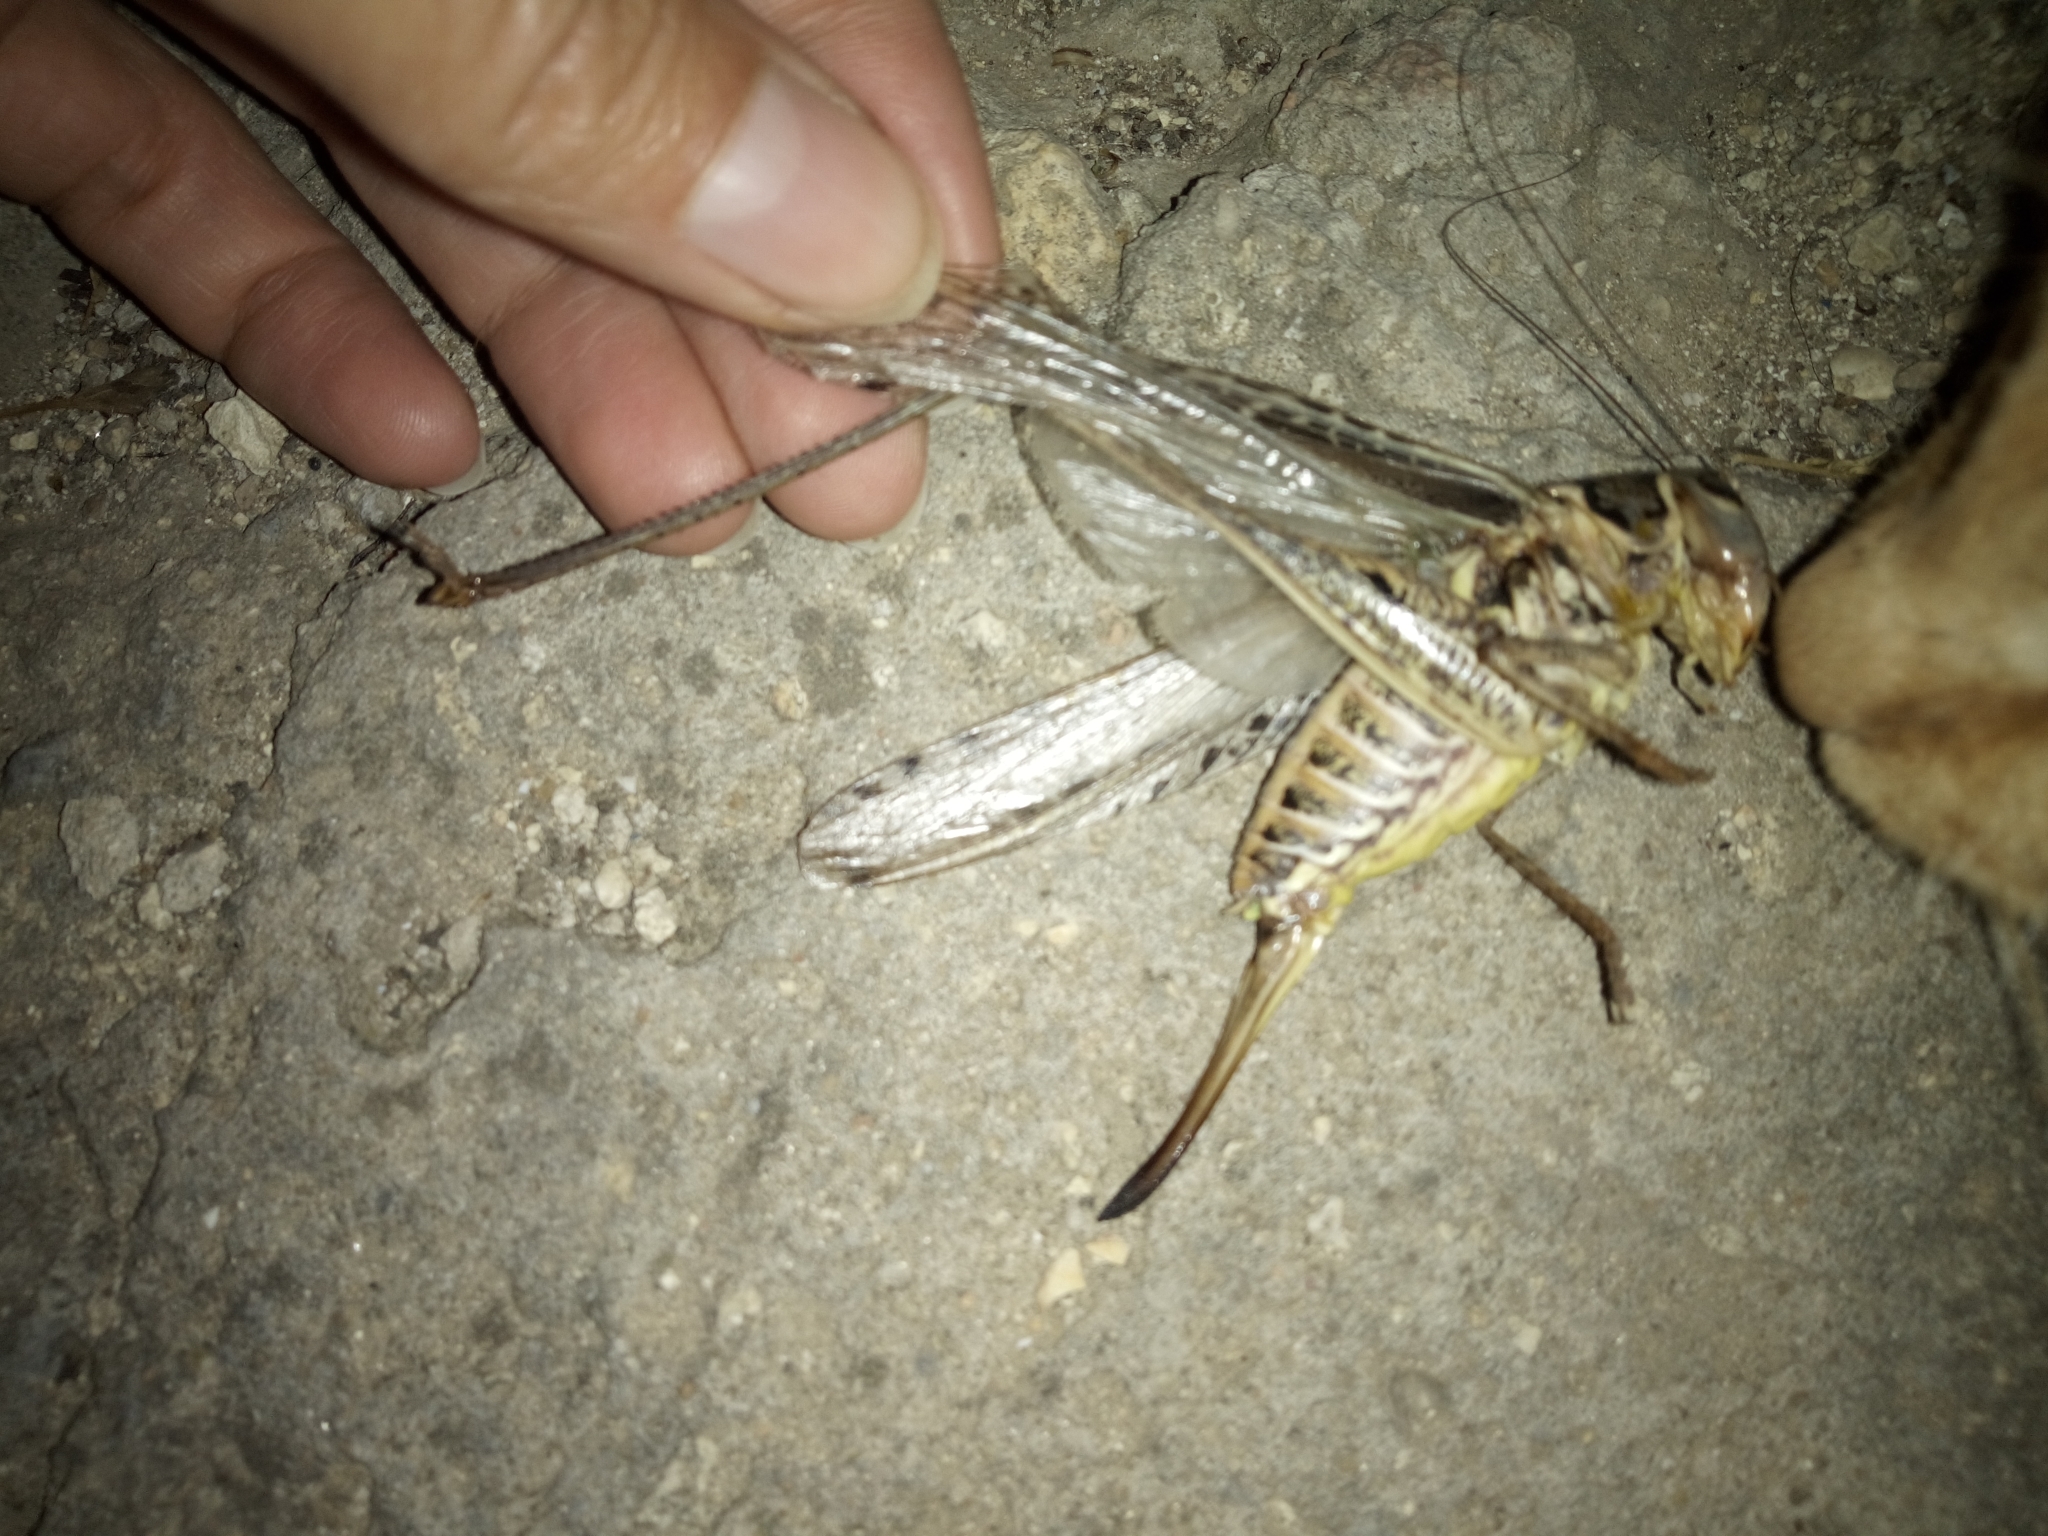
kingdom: Animalia
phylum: Arthropoda
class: Insecta
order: Orthoptera
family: Tettigoniidae
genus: Decticus
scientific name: Decticus albifrons
